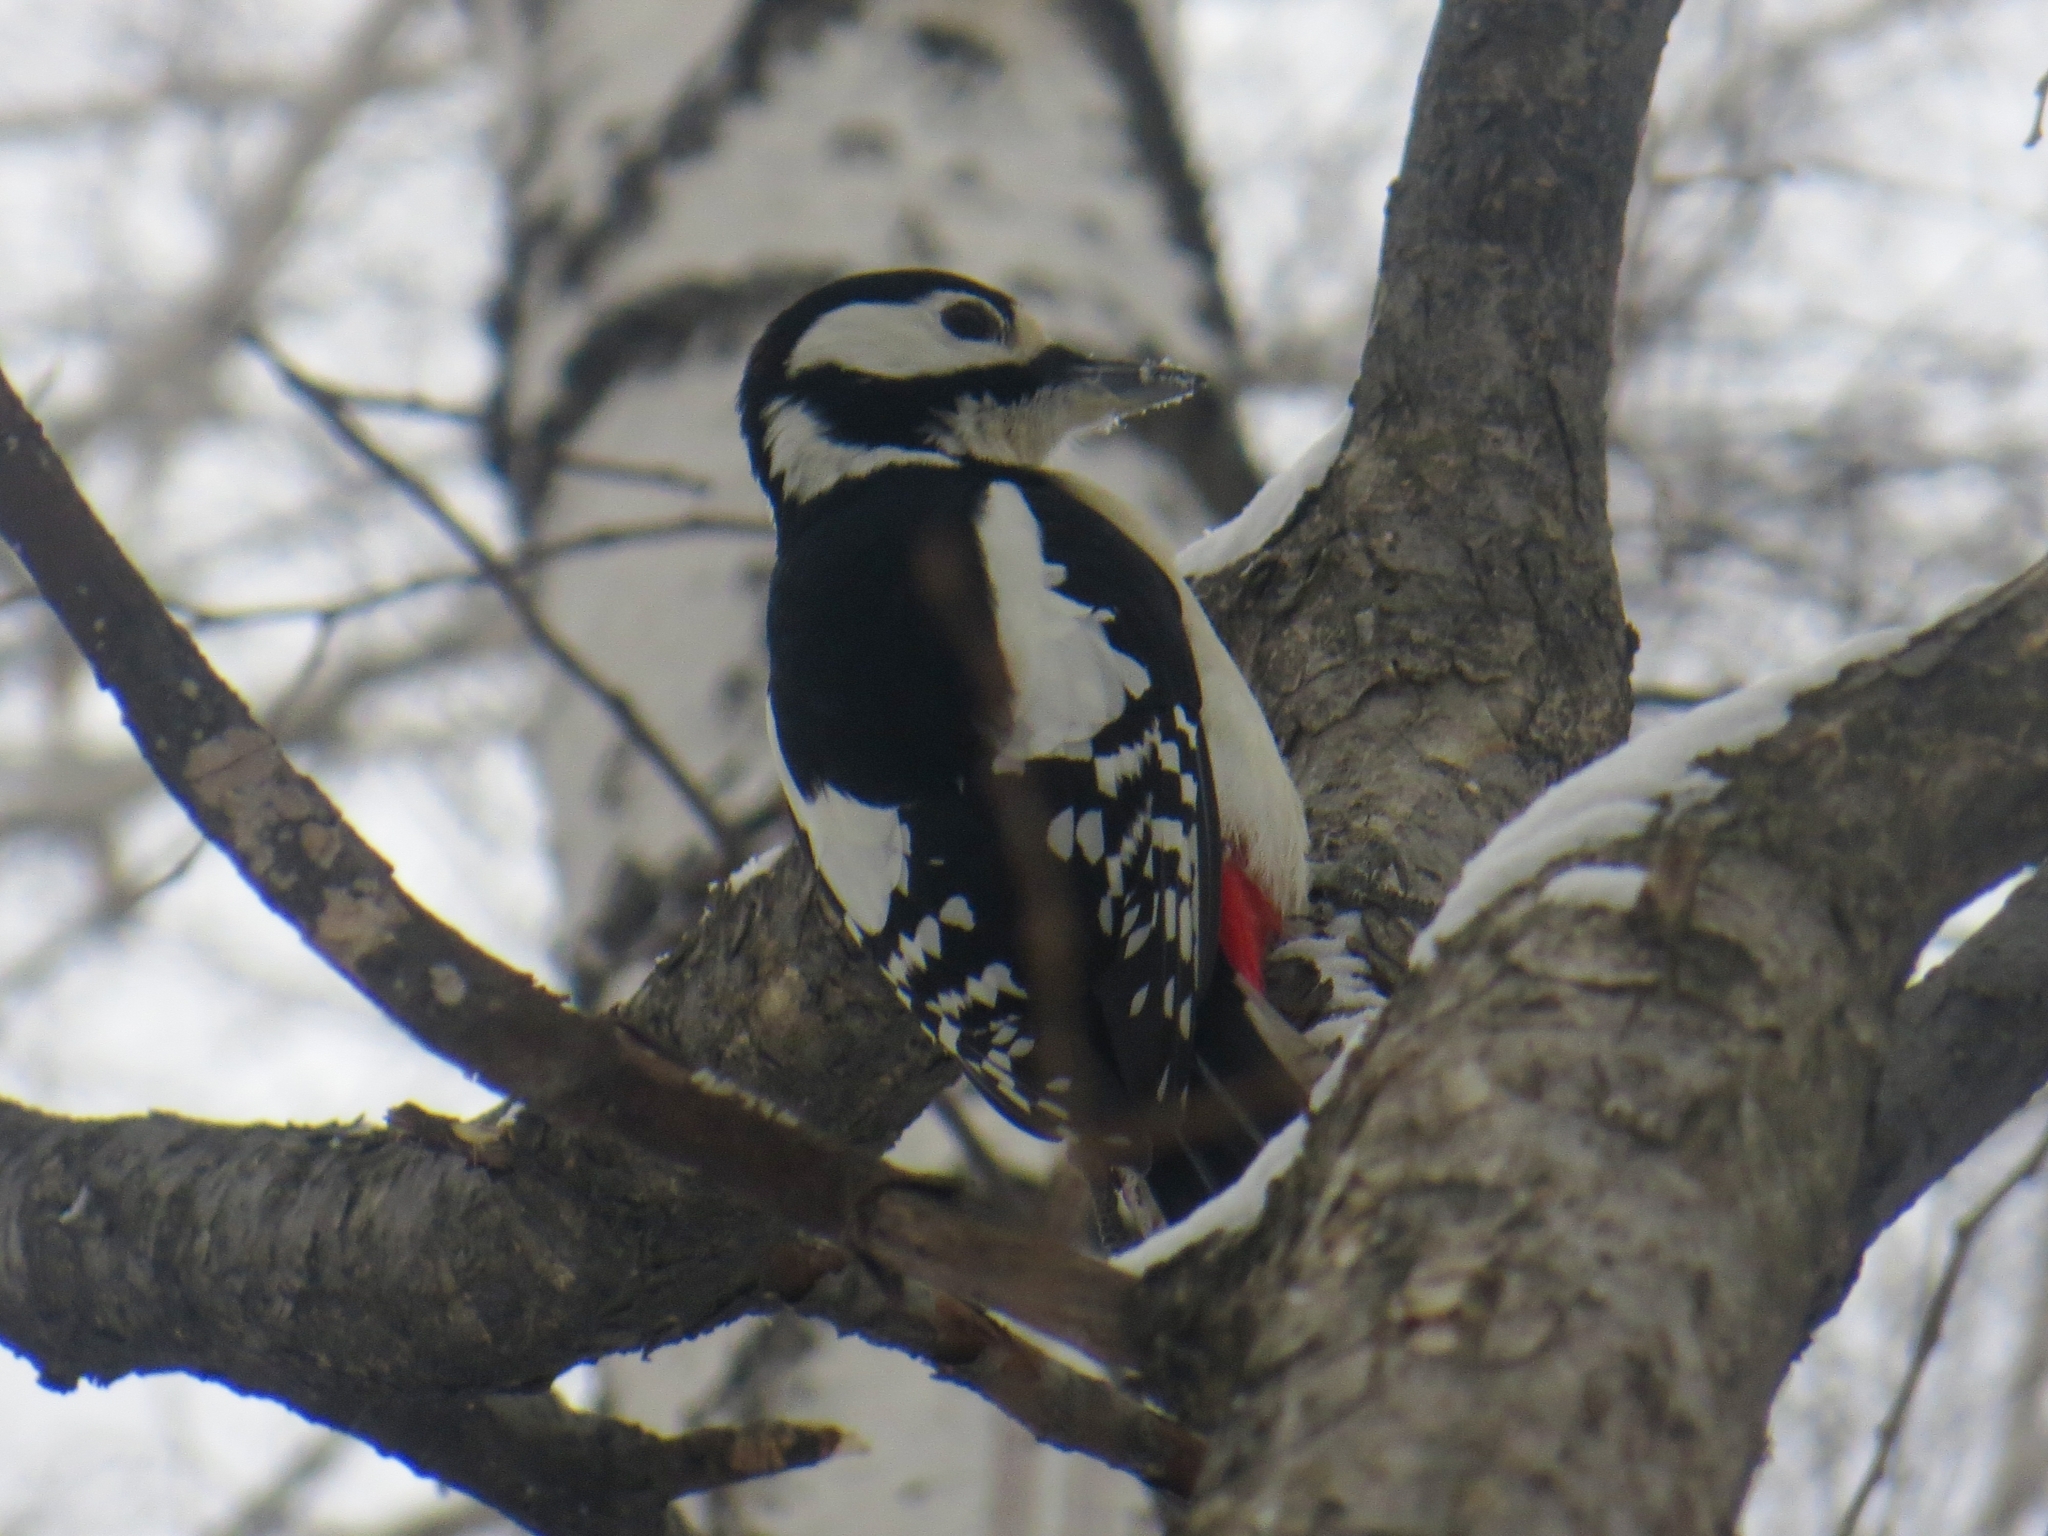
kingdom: Animalia
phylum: Chordata
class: Aves
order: Piciformes
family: Picidae
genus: Dendrocopos
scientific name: Dendrocopos major
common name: Great spotted woodpecker
